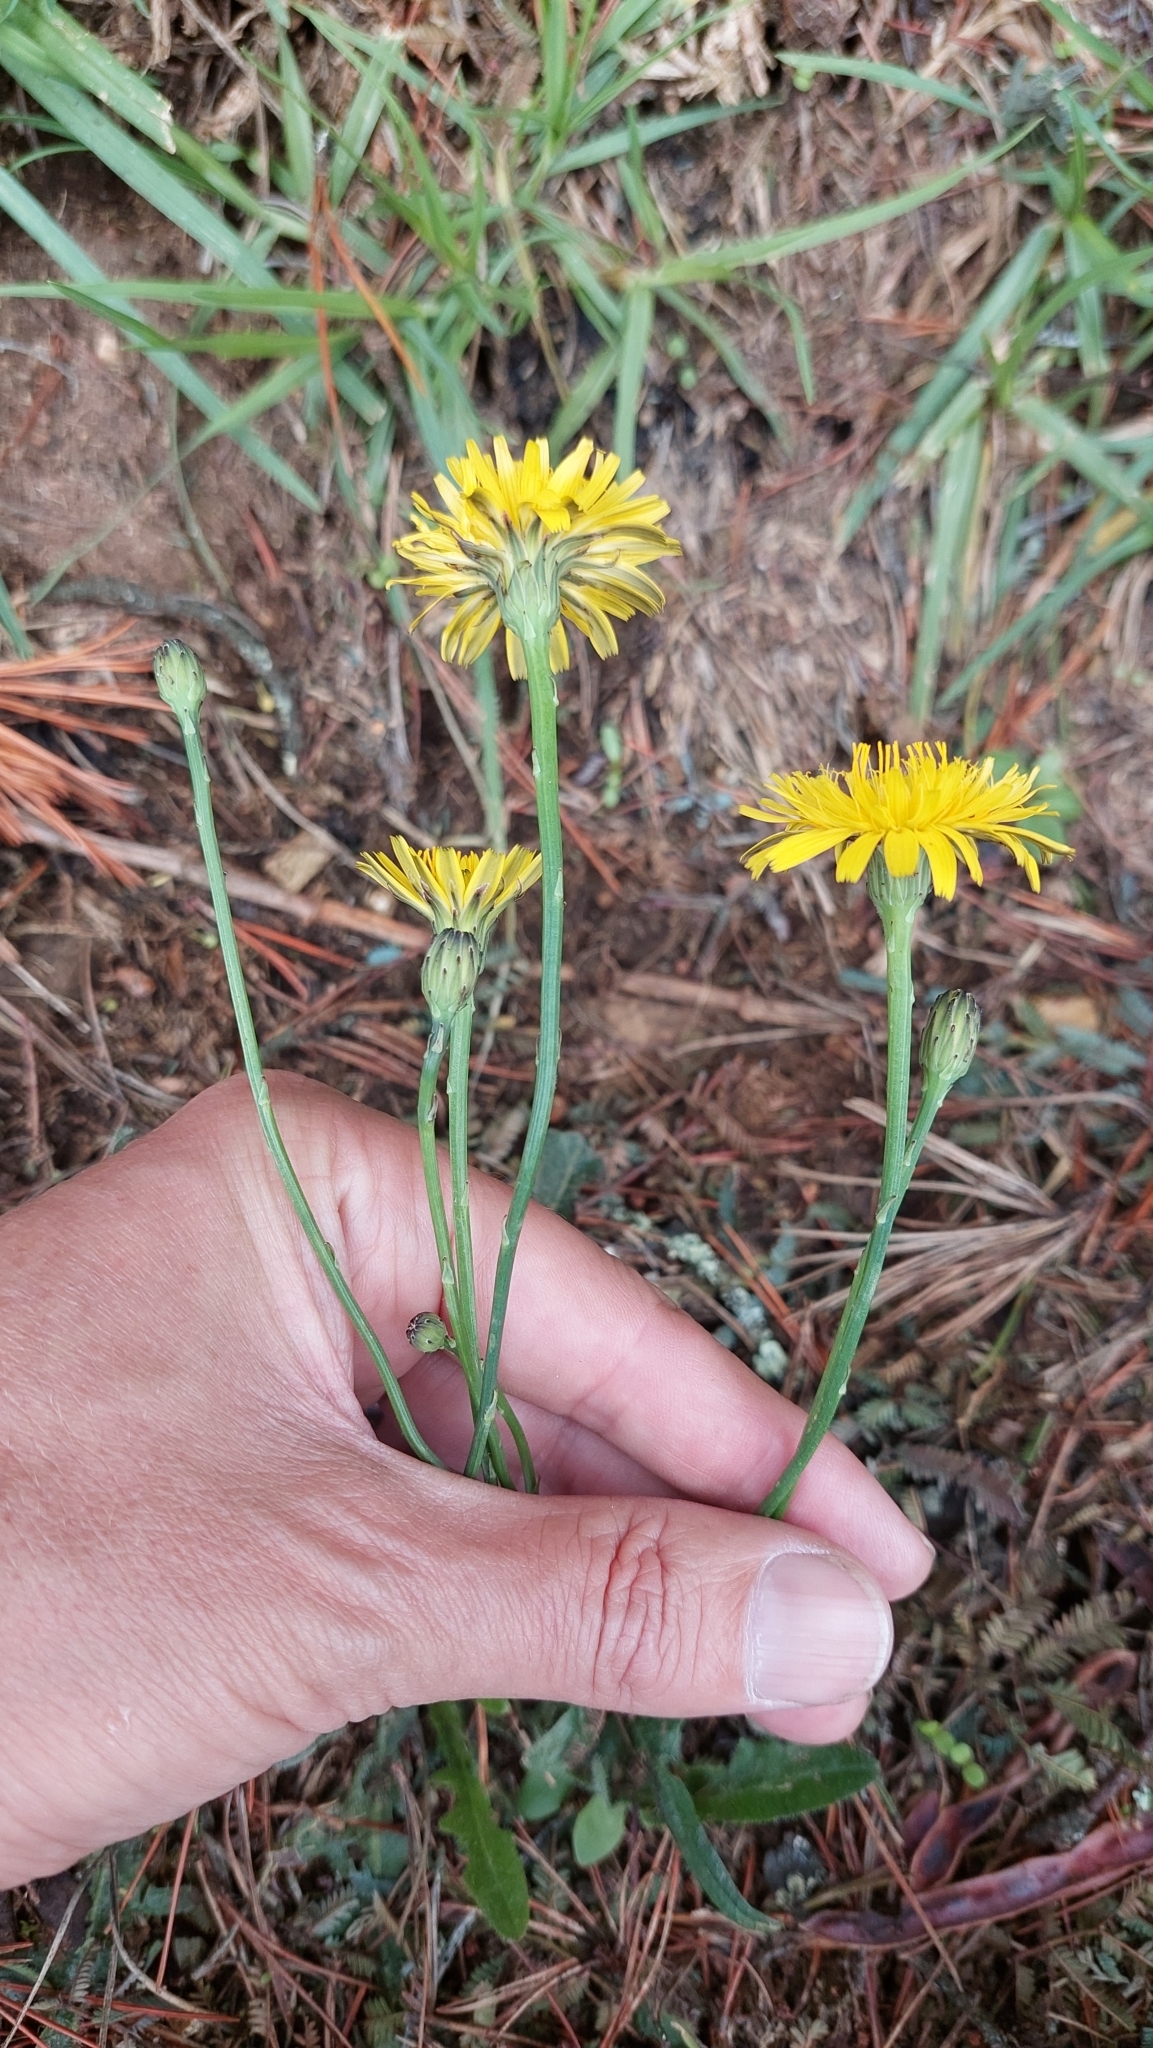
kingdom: Plantae
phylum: Tracheophyta
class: Magnoliopsida
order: Asterales
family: Asteraceae
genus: Hypochaeris
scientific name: Hypochaeris radicata
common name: Flatweed
